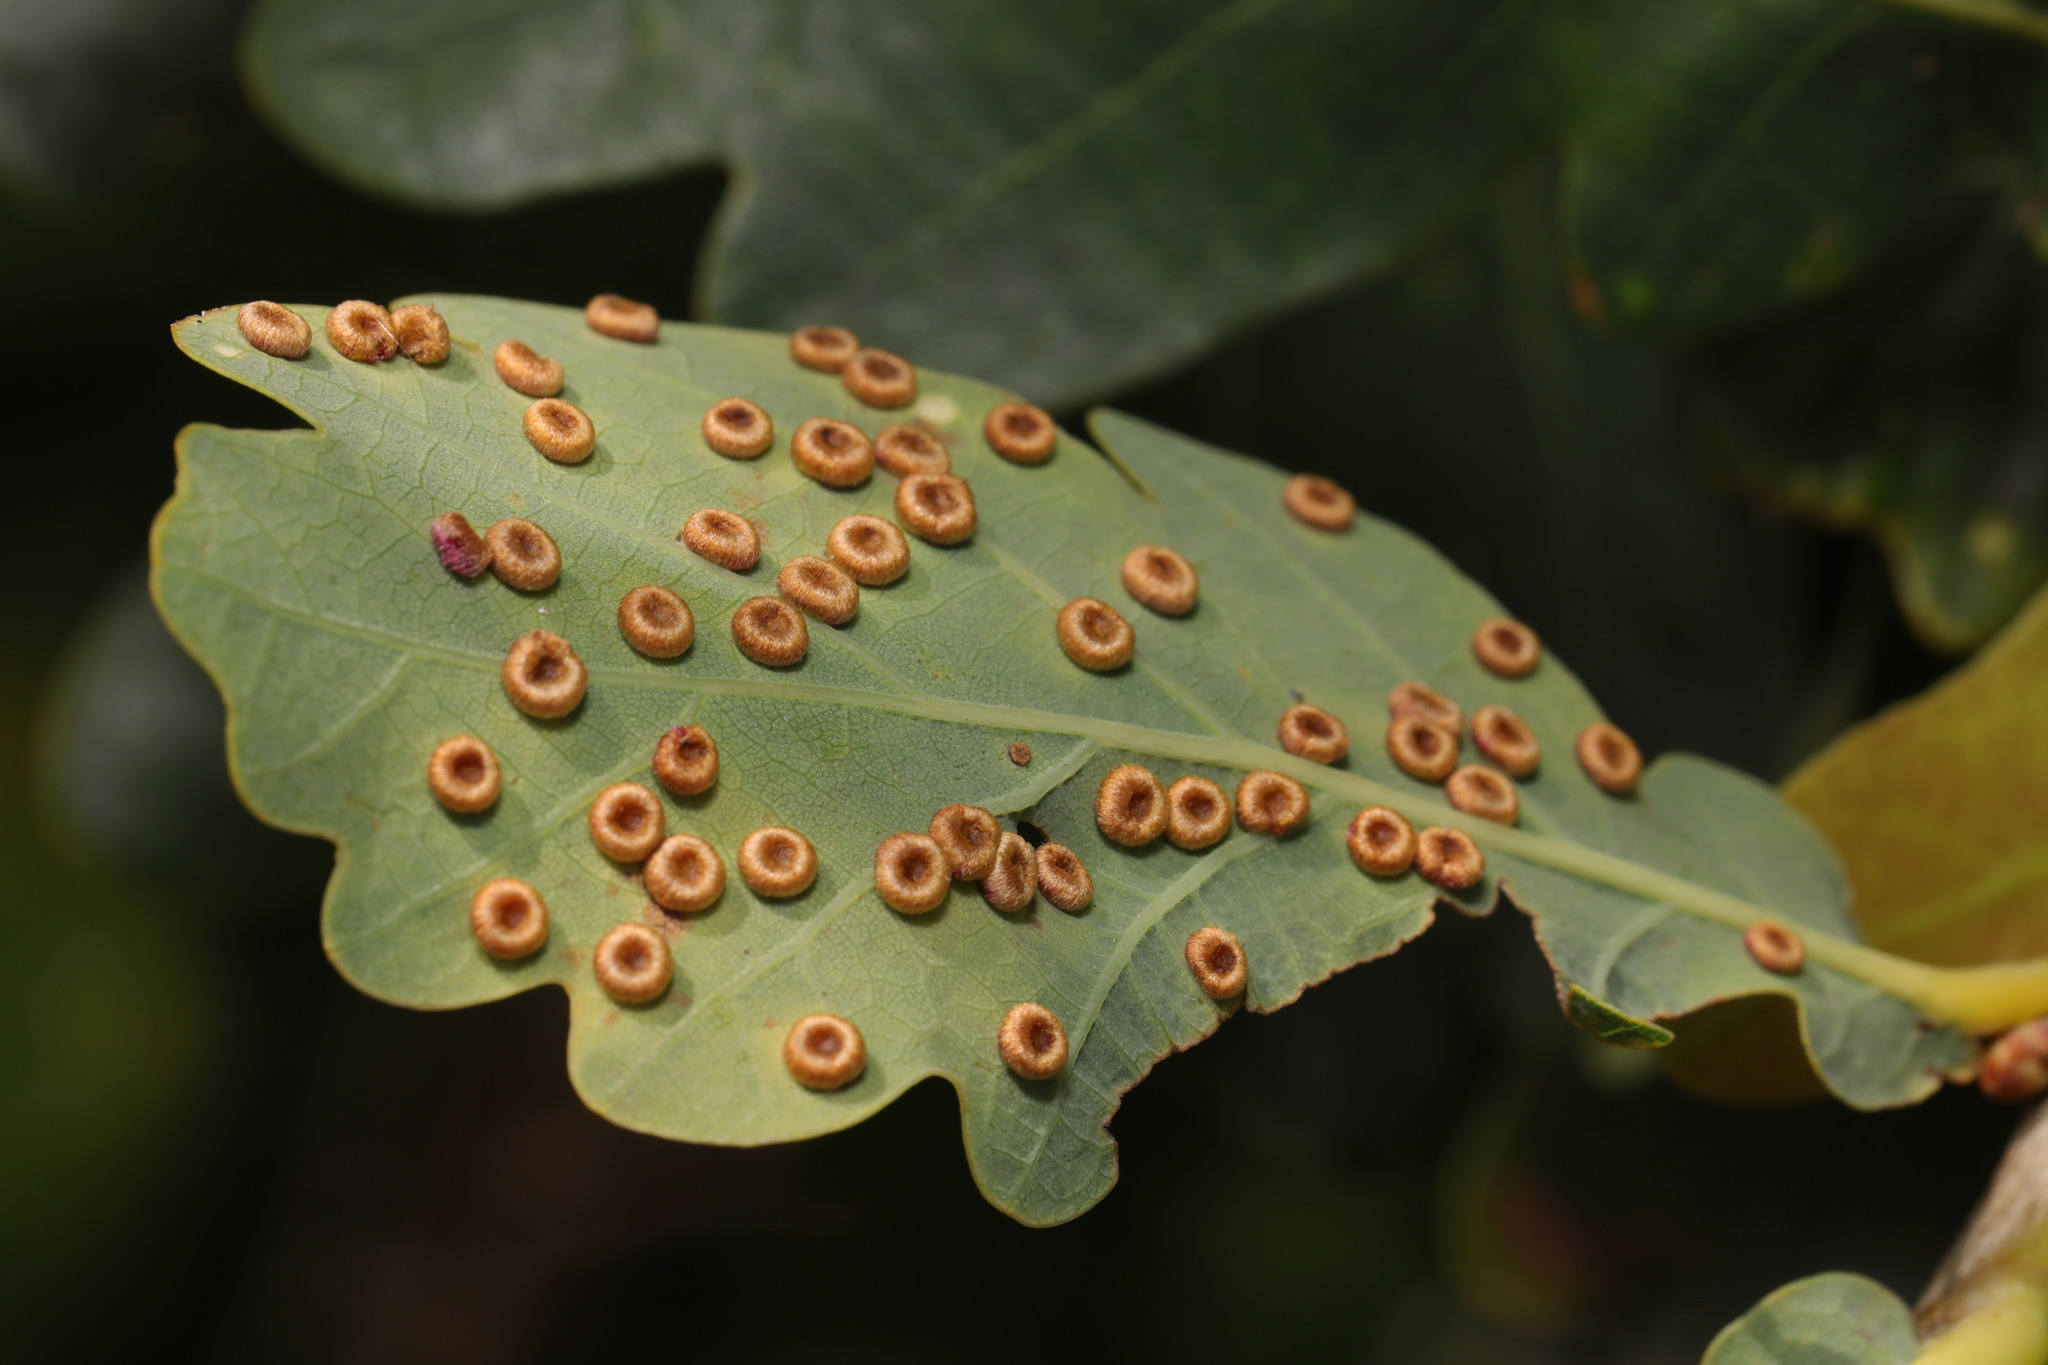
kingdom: Animalia
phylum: Arthropoda
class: Insecta
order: Hymenoptera
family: Cynipidae
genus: Neuroterus
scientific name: Neuroterus numismalis
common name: Silk-button spangle gall
